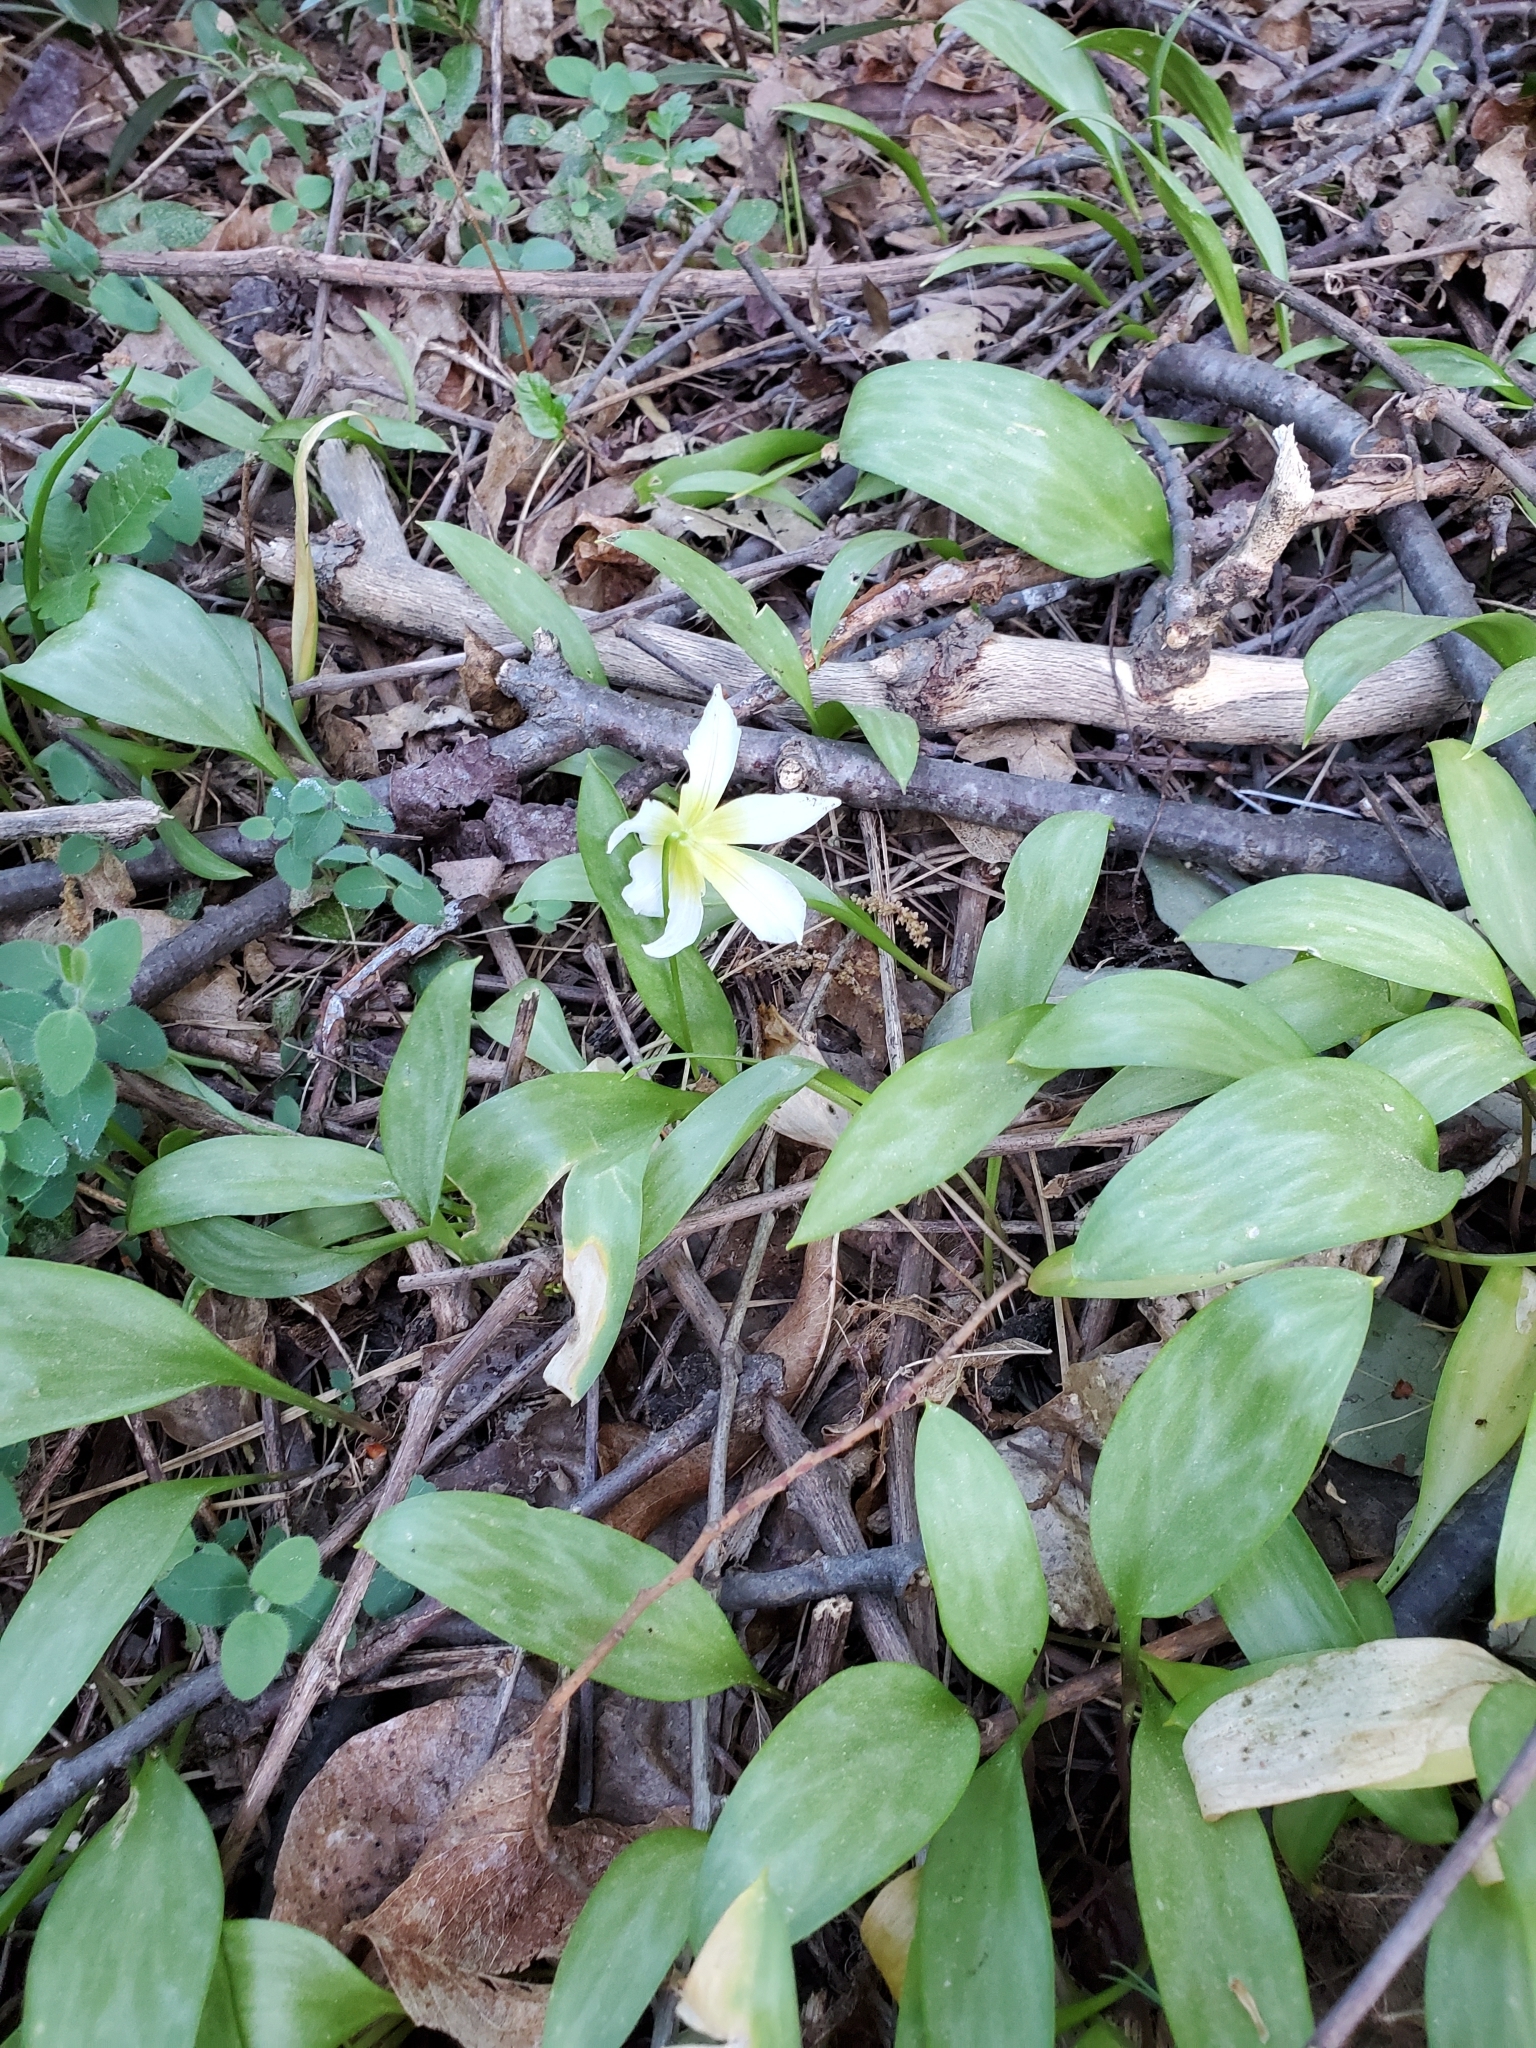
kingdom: Plantae
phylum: Tracheophyta
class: Liliopsida
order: Liliales
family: Liliaceae
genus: Erythronium
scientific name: Erythronium multiscapideum
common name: Sierra foothills fawn-lily
